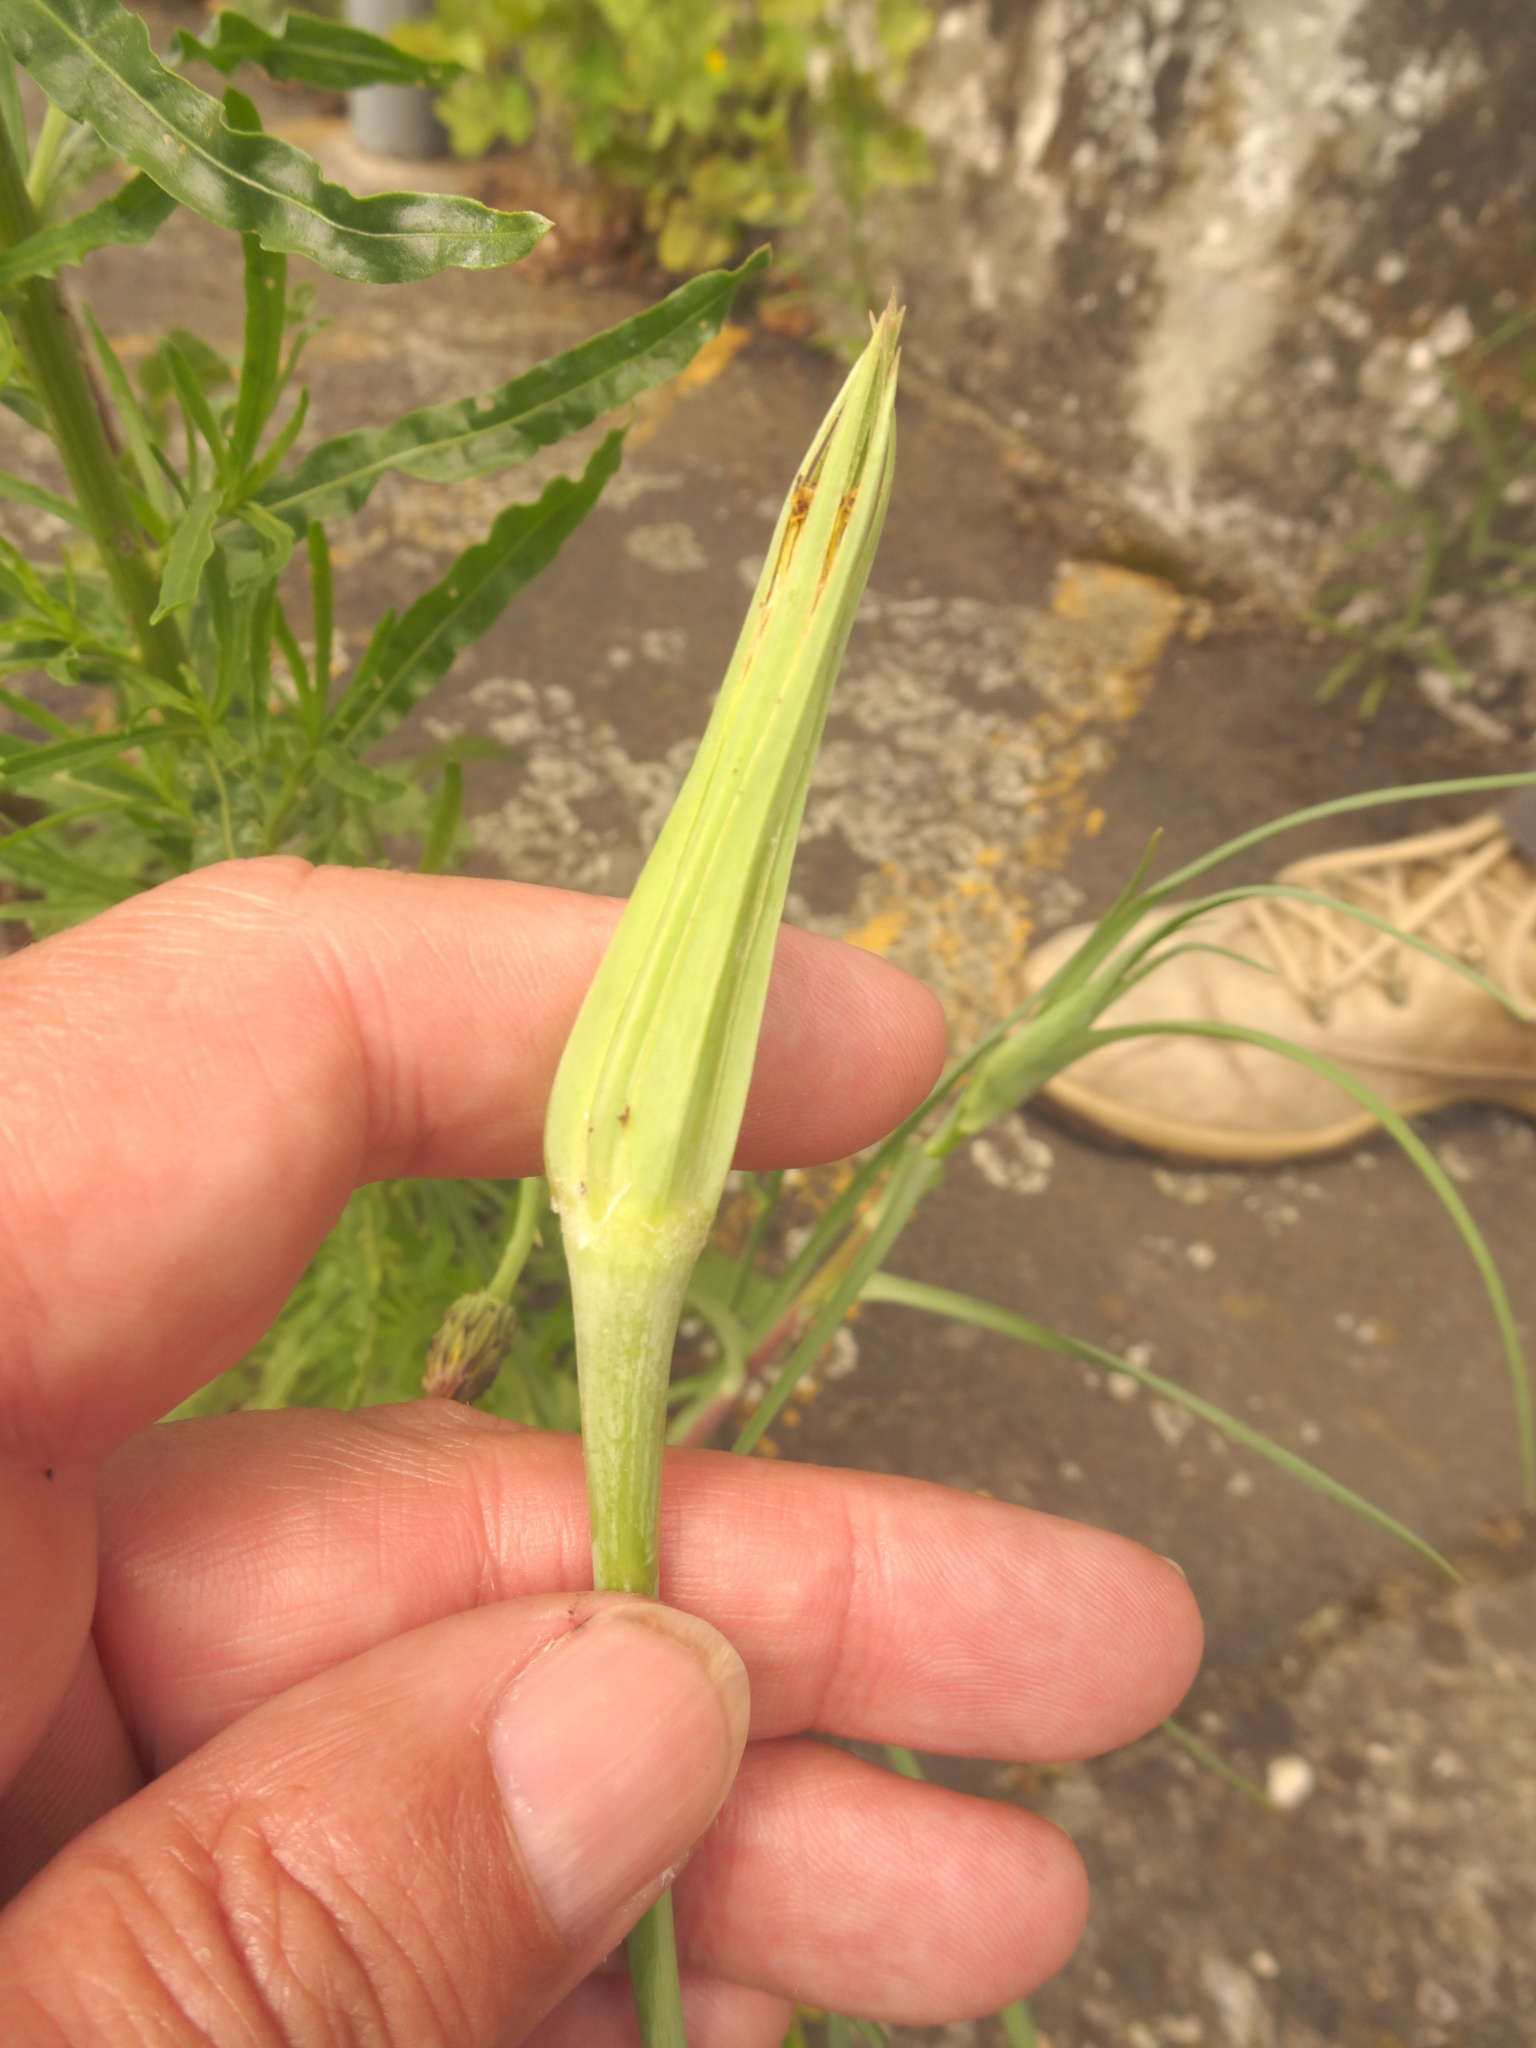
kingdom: Plantae
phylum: Tracheophyta
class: Magnoliopsida
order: Asterales
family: Asteraceae
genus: Tragopogon
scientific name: Tragopogon dubius
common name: Yellow salsify
